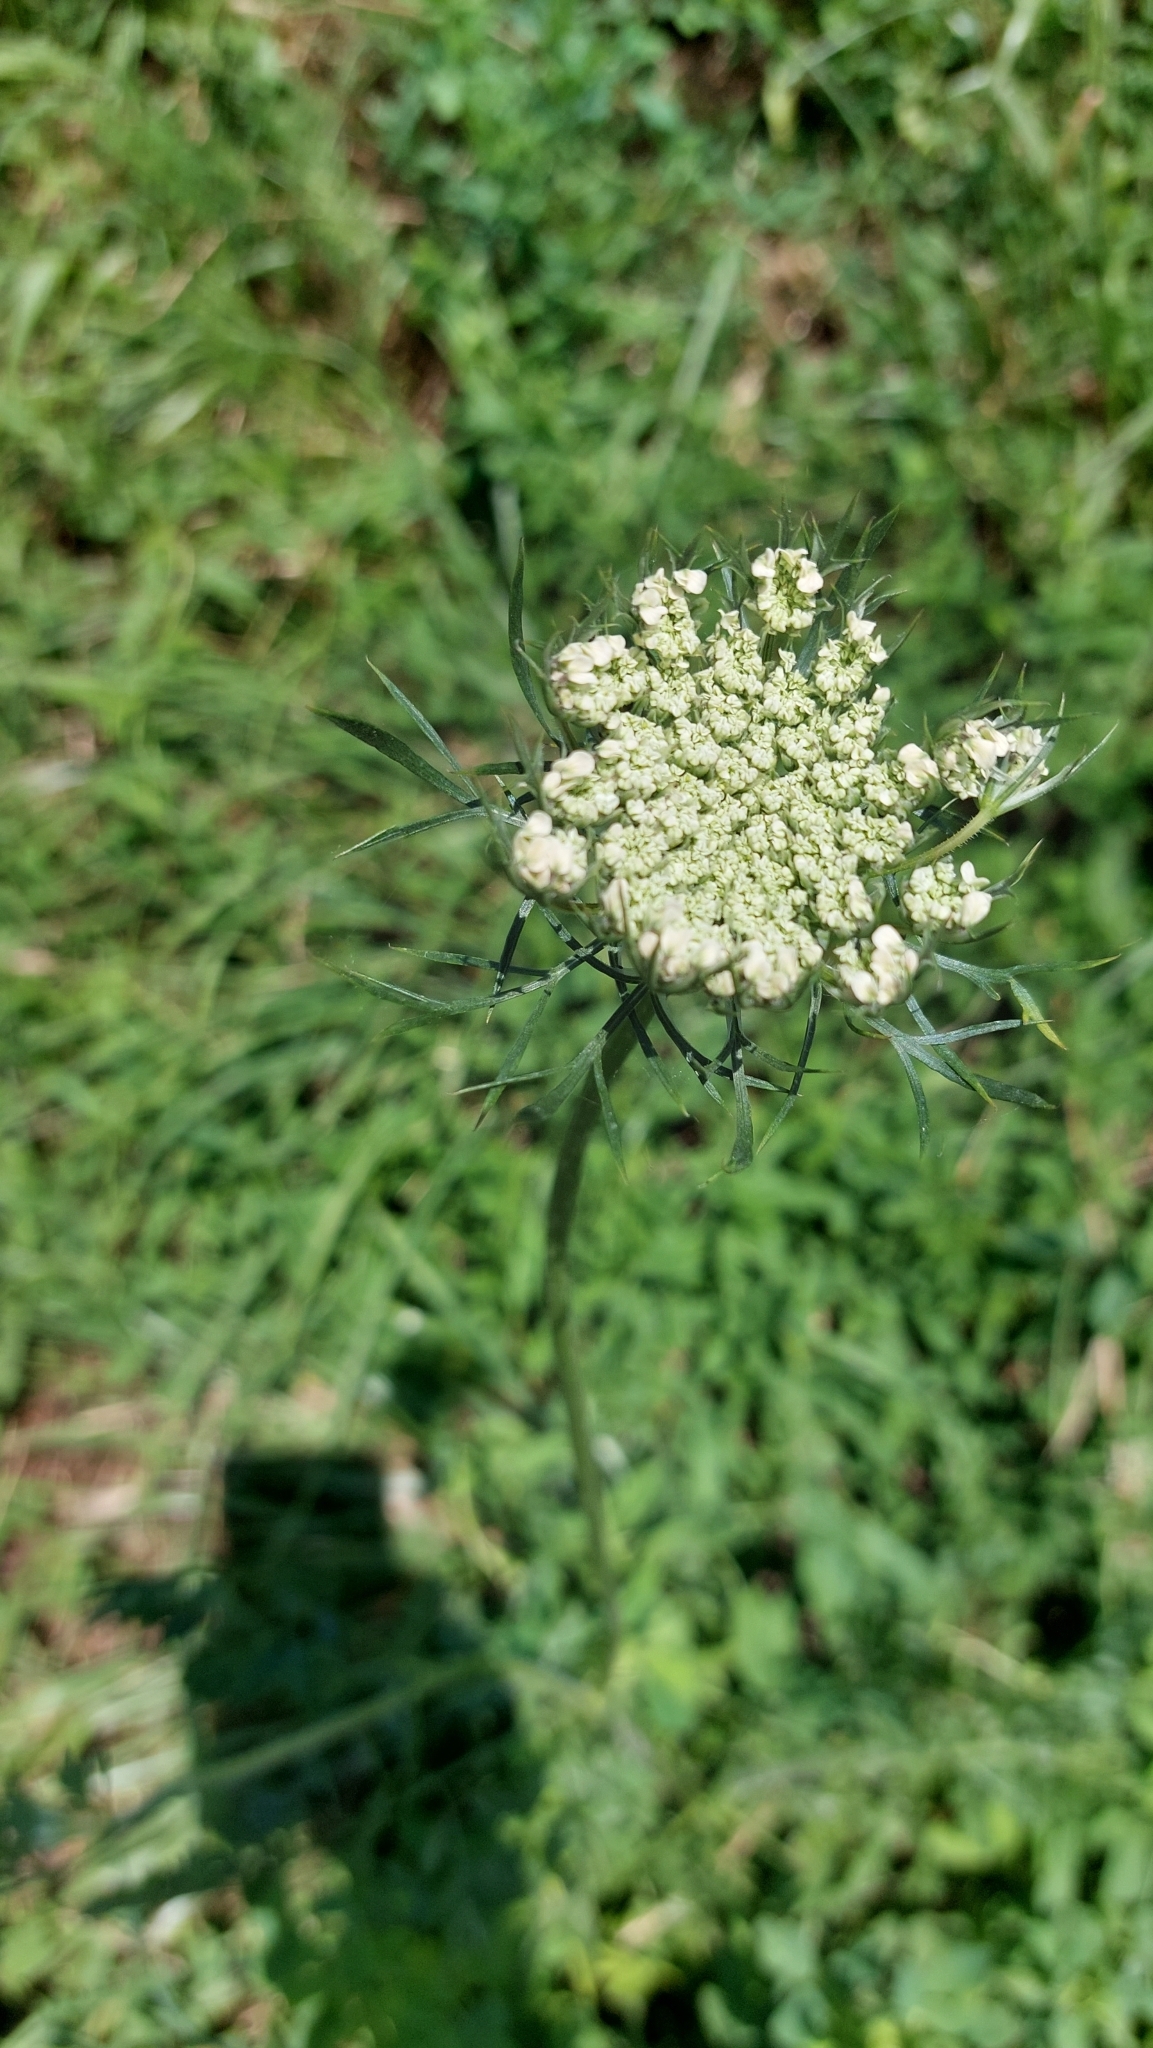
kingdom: Plantae
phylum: Tracheophyta
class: Magnoliopsida
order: Apiales
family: Apiaceae
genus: Daucus
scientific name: Daucus carota
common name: Wild carrot
